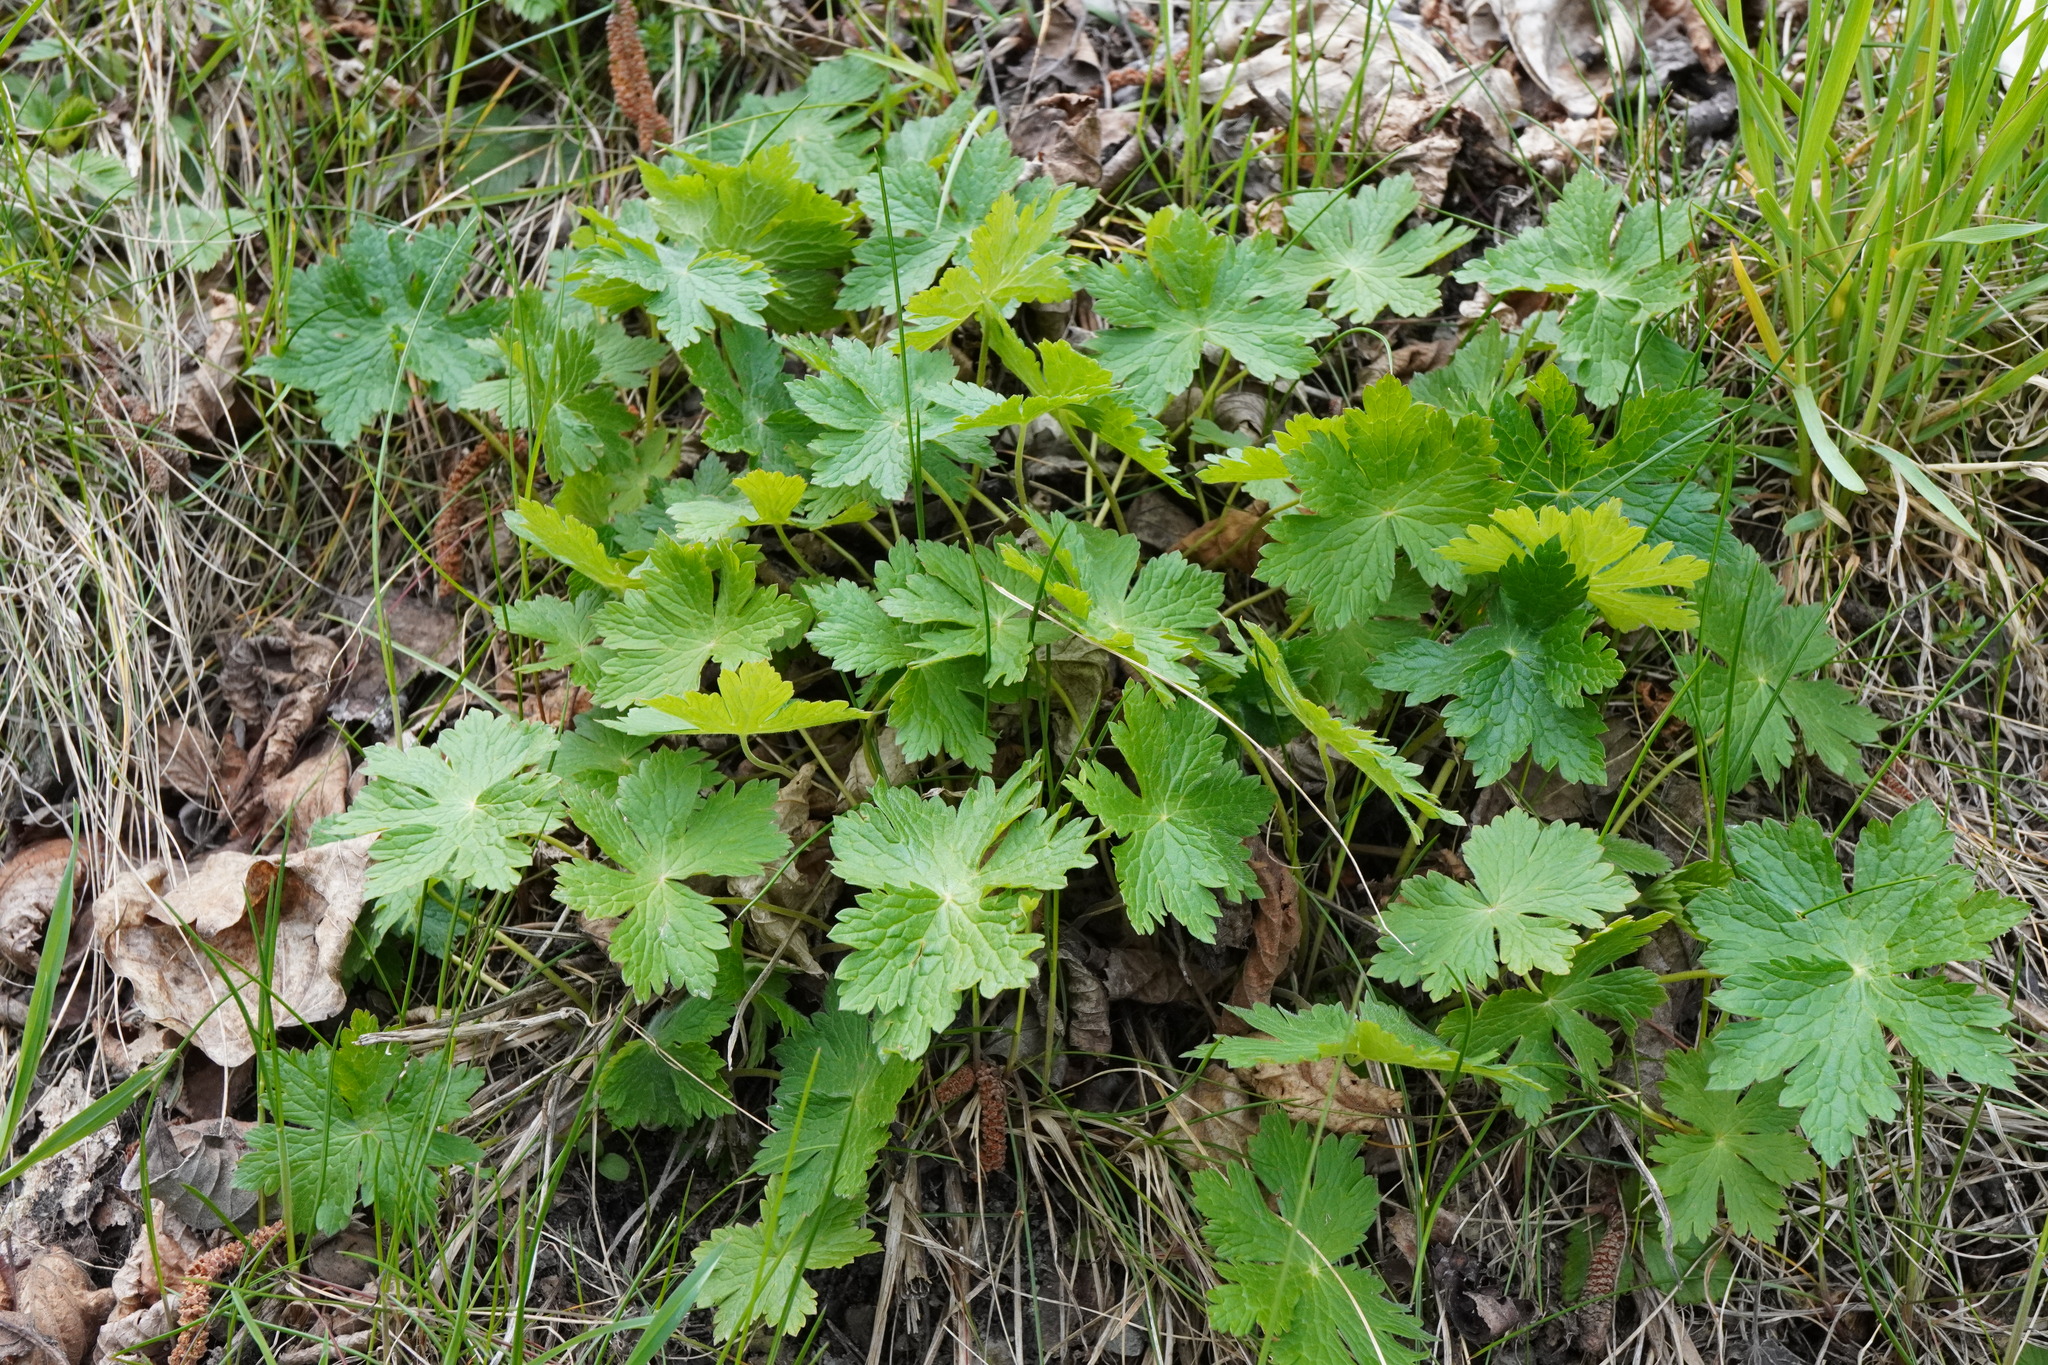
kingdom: Plantae
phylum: Tracheophyta
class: Magnoliopsida
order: Geraniales
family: Geraniaceae
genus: Geranium
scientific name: Geranium phaeum
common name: Dusky crane's-bill
